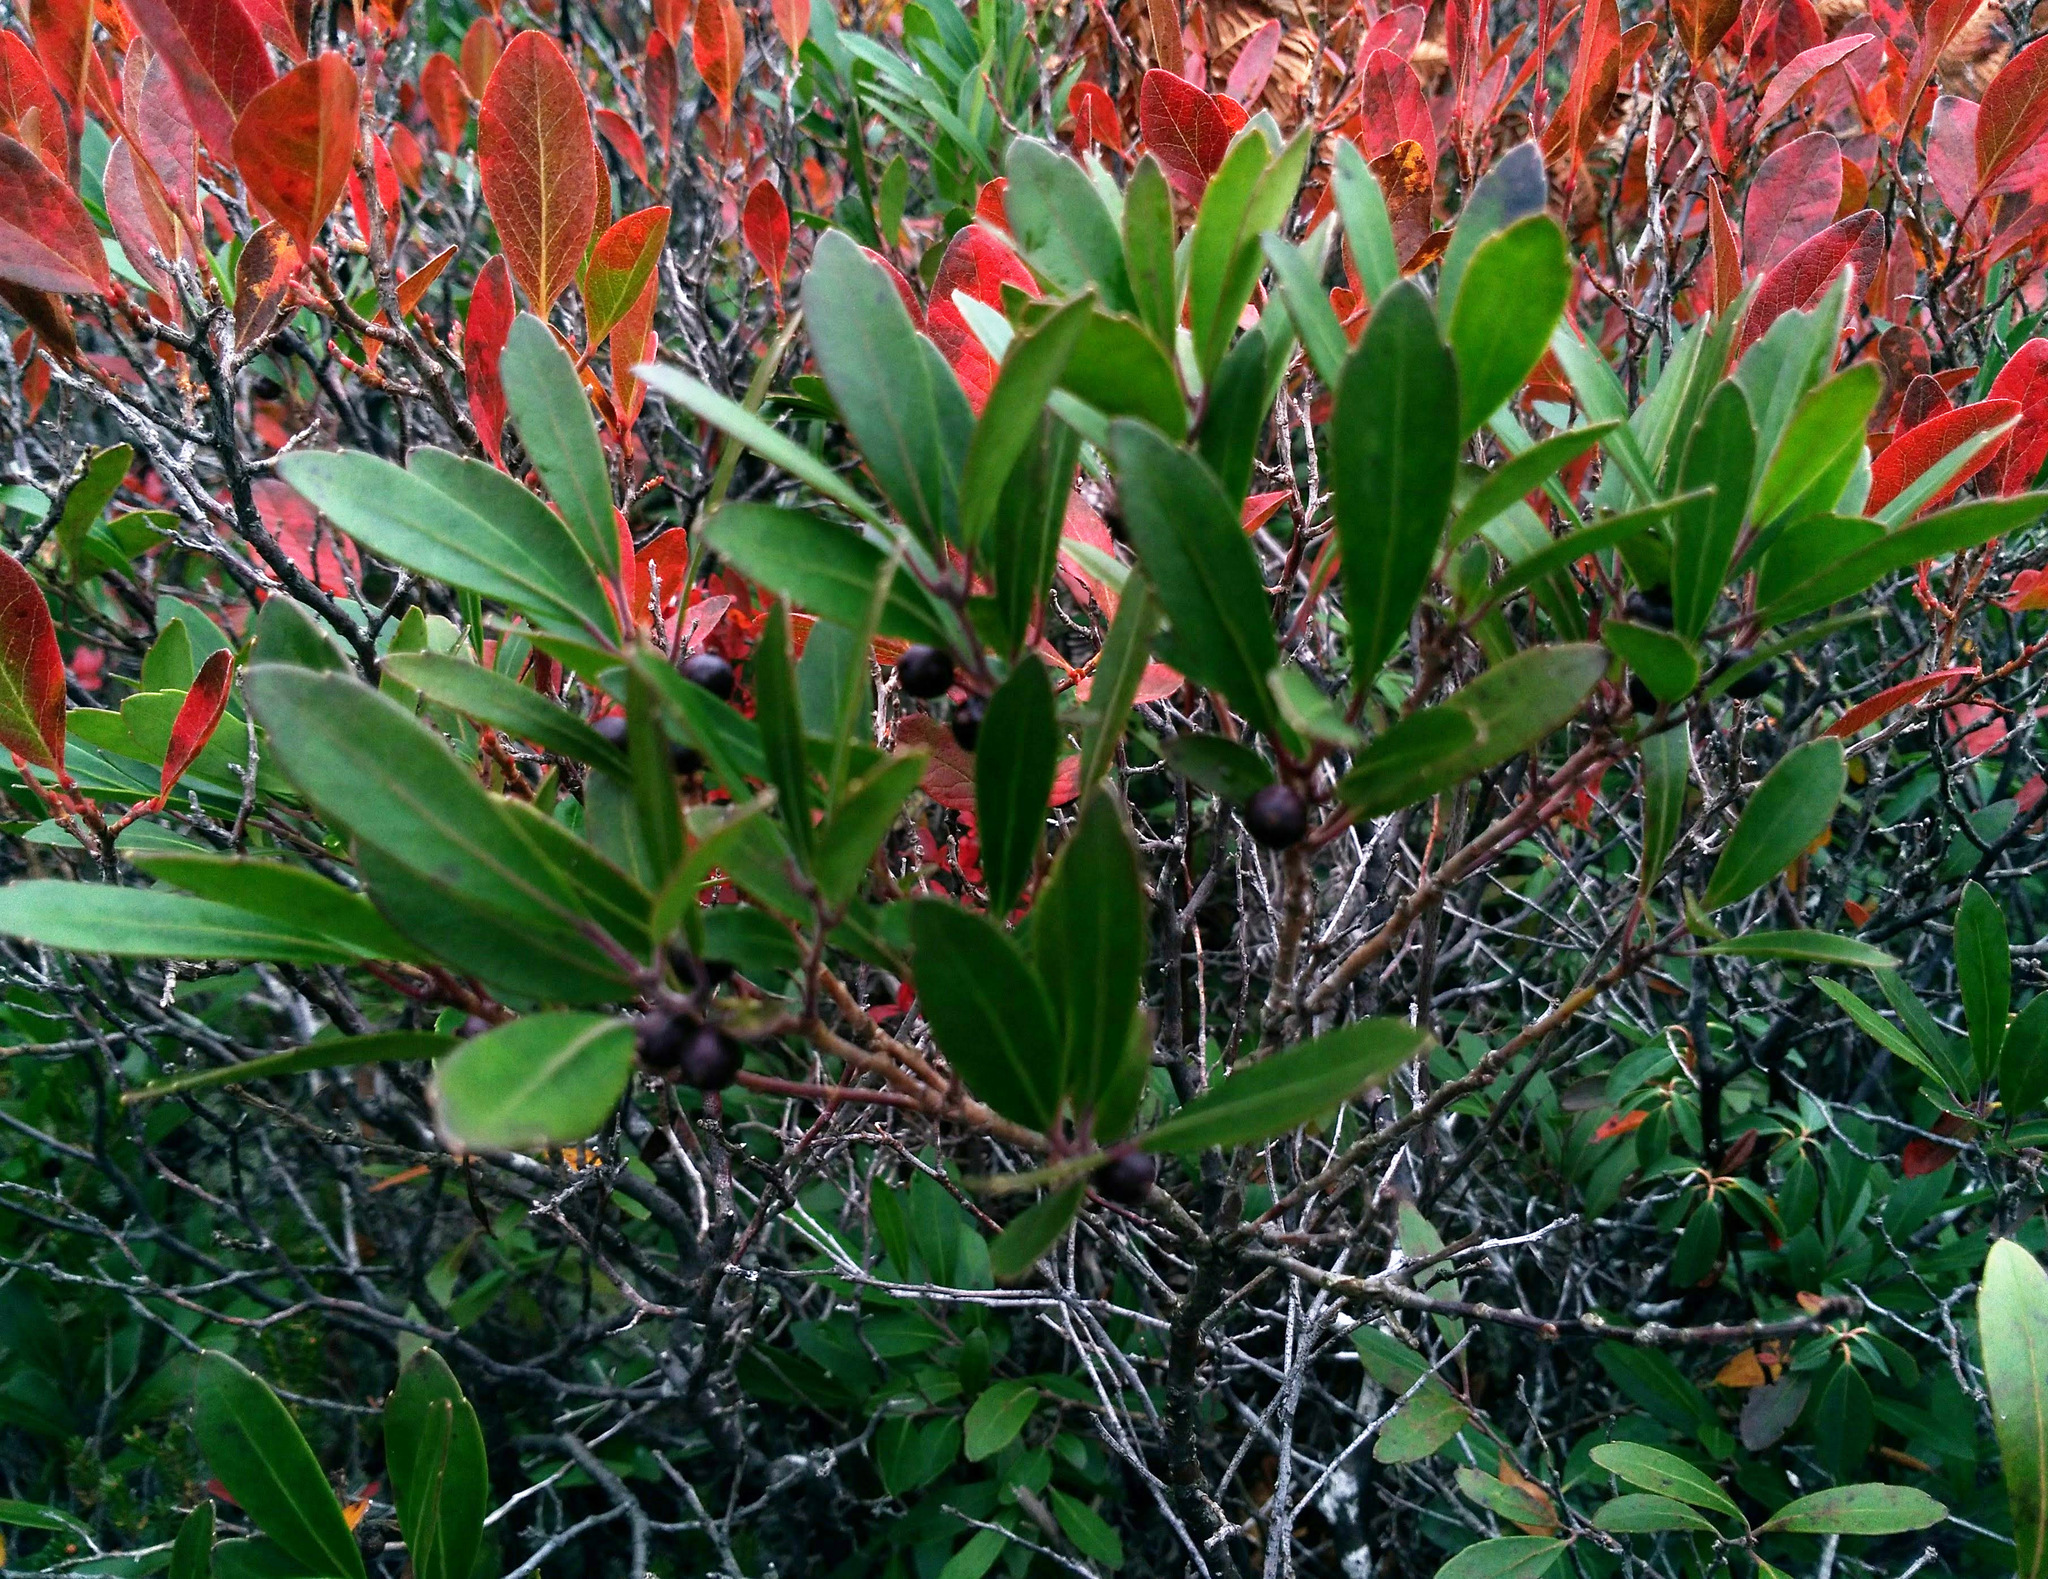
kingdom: Plantae
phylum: Tracheophyta
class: Magnoliopsida
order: Aquifoliales
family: Aquifoliaceae
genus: Ilex
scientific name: Ilex glabra
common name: Bitter gallberry
